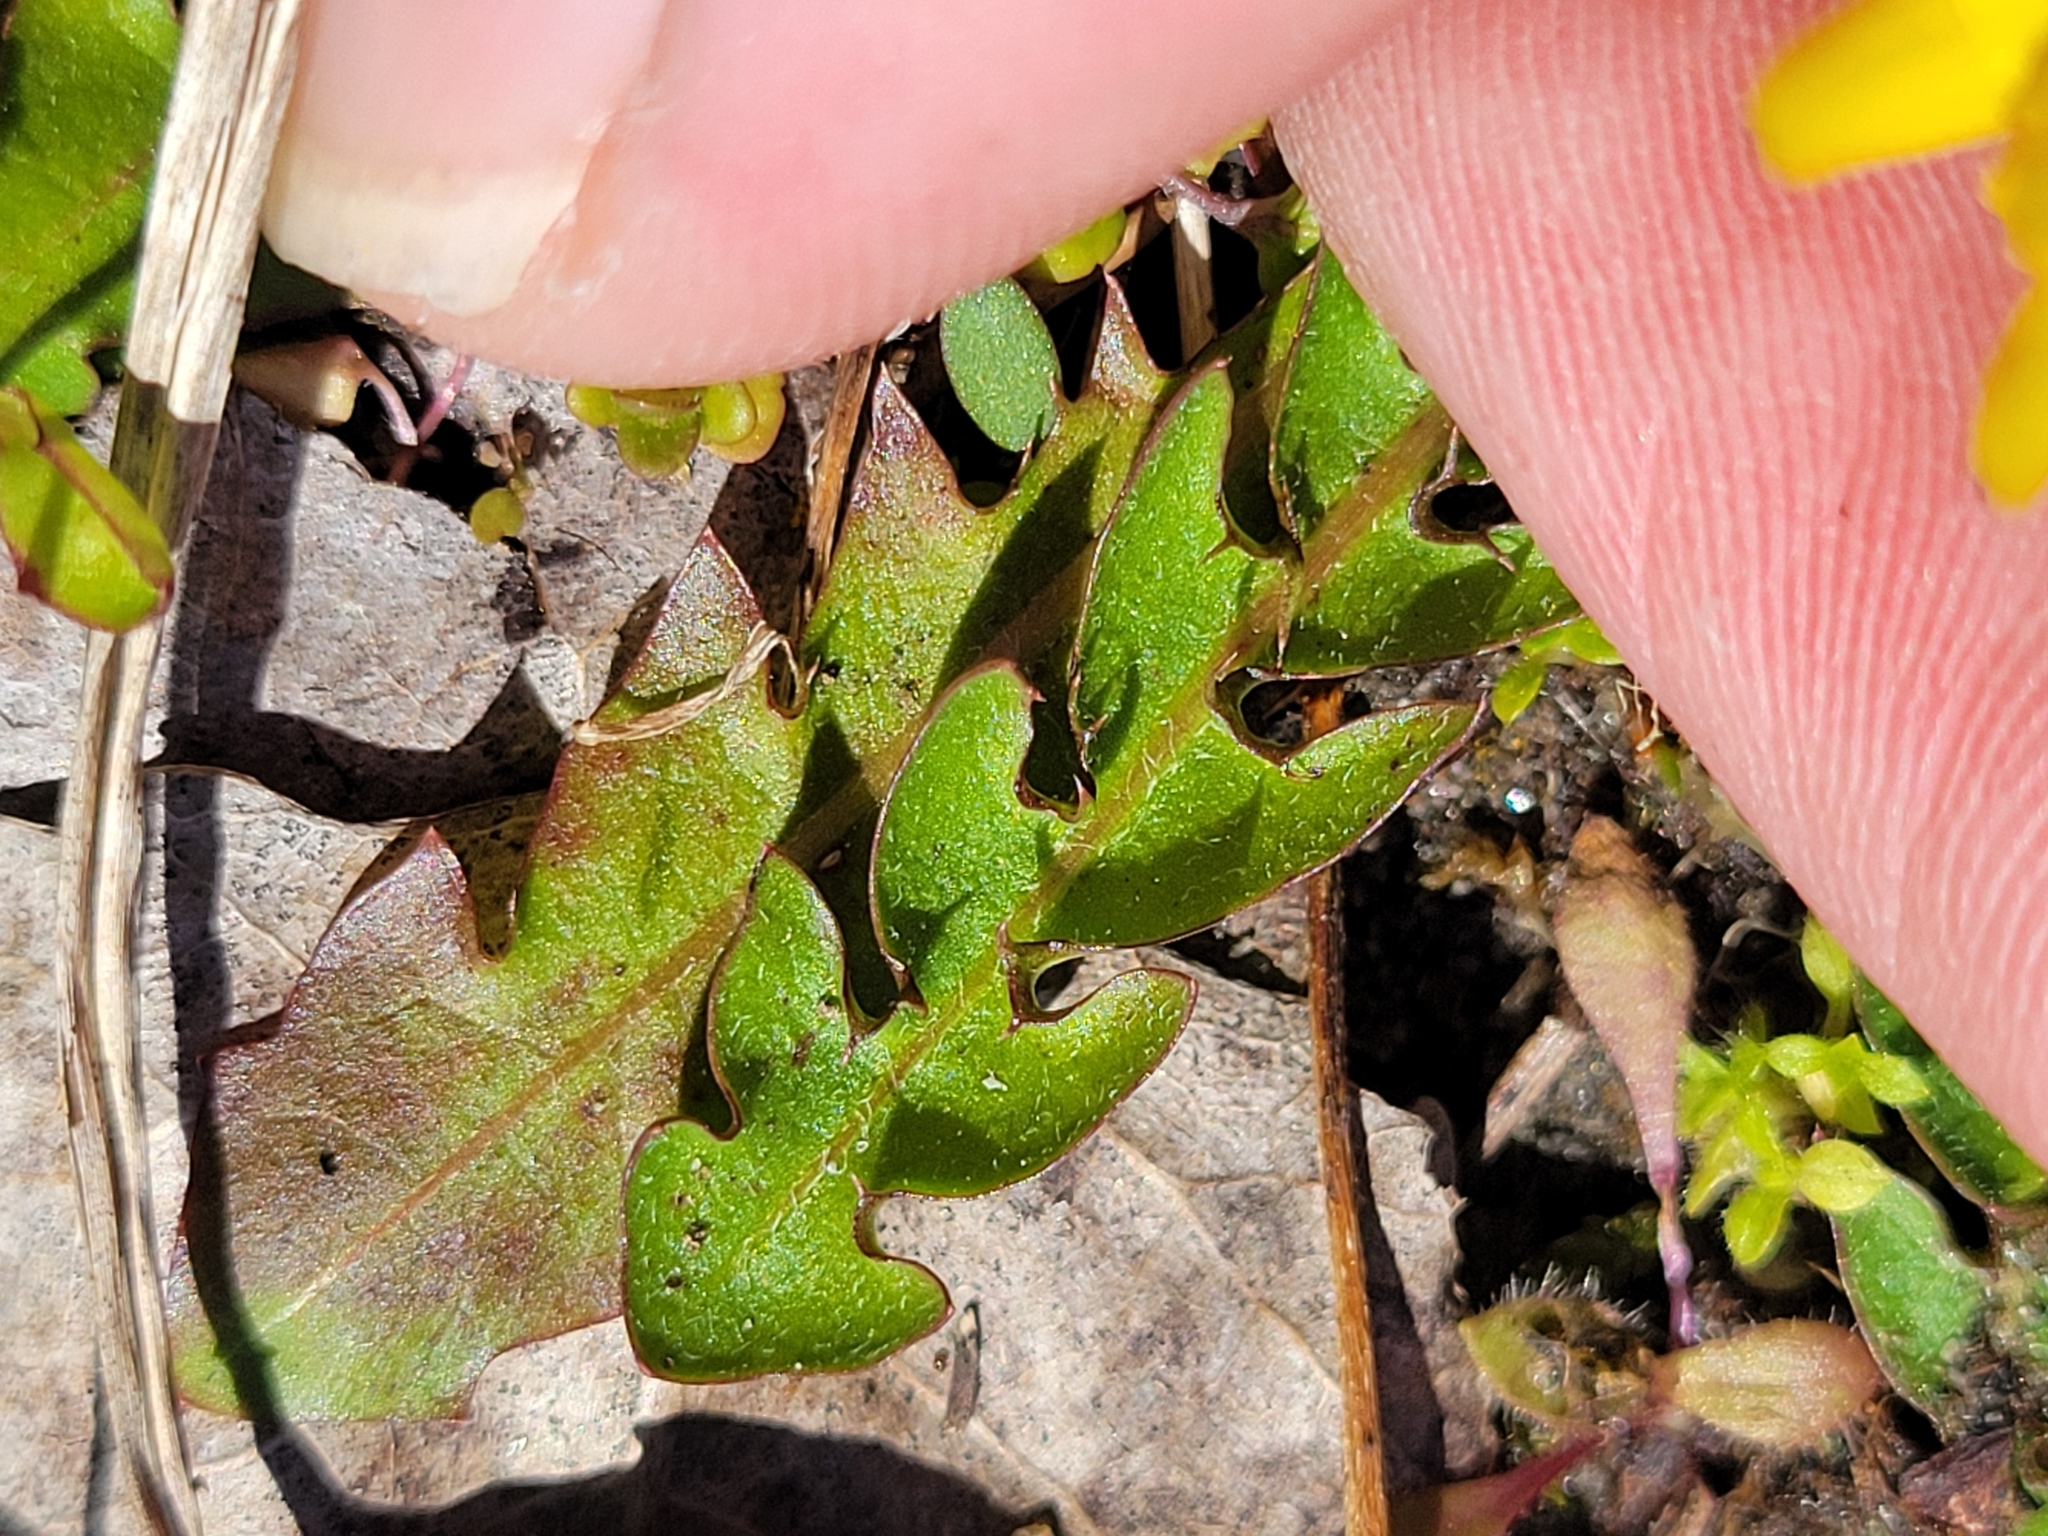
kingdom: Plantae
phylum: Tracheophyta
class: Magnoliopsida
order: Asterales
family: Asteraceae
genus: Taraxacum
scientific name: Taraxacum officinale
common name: Common dandelion
